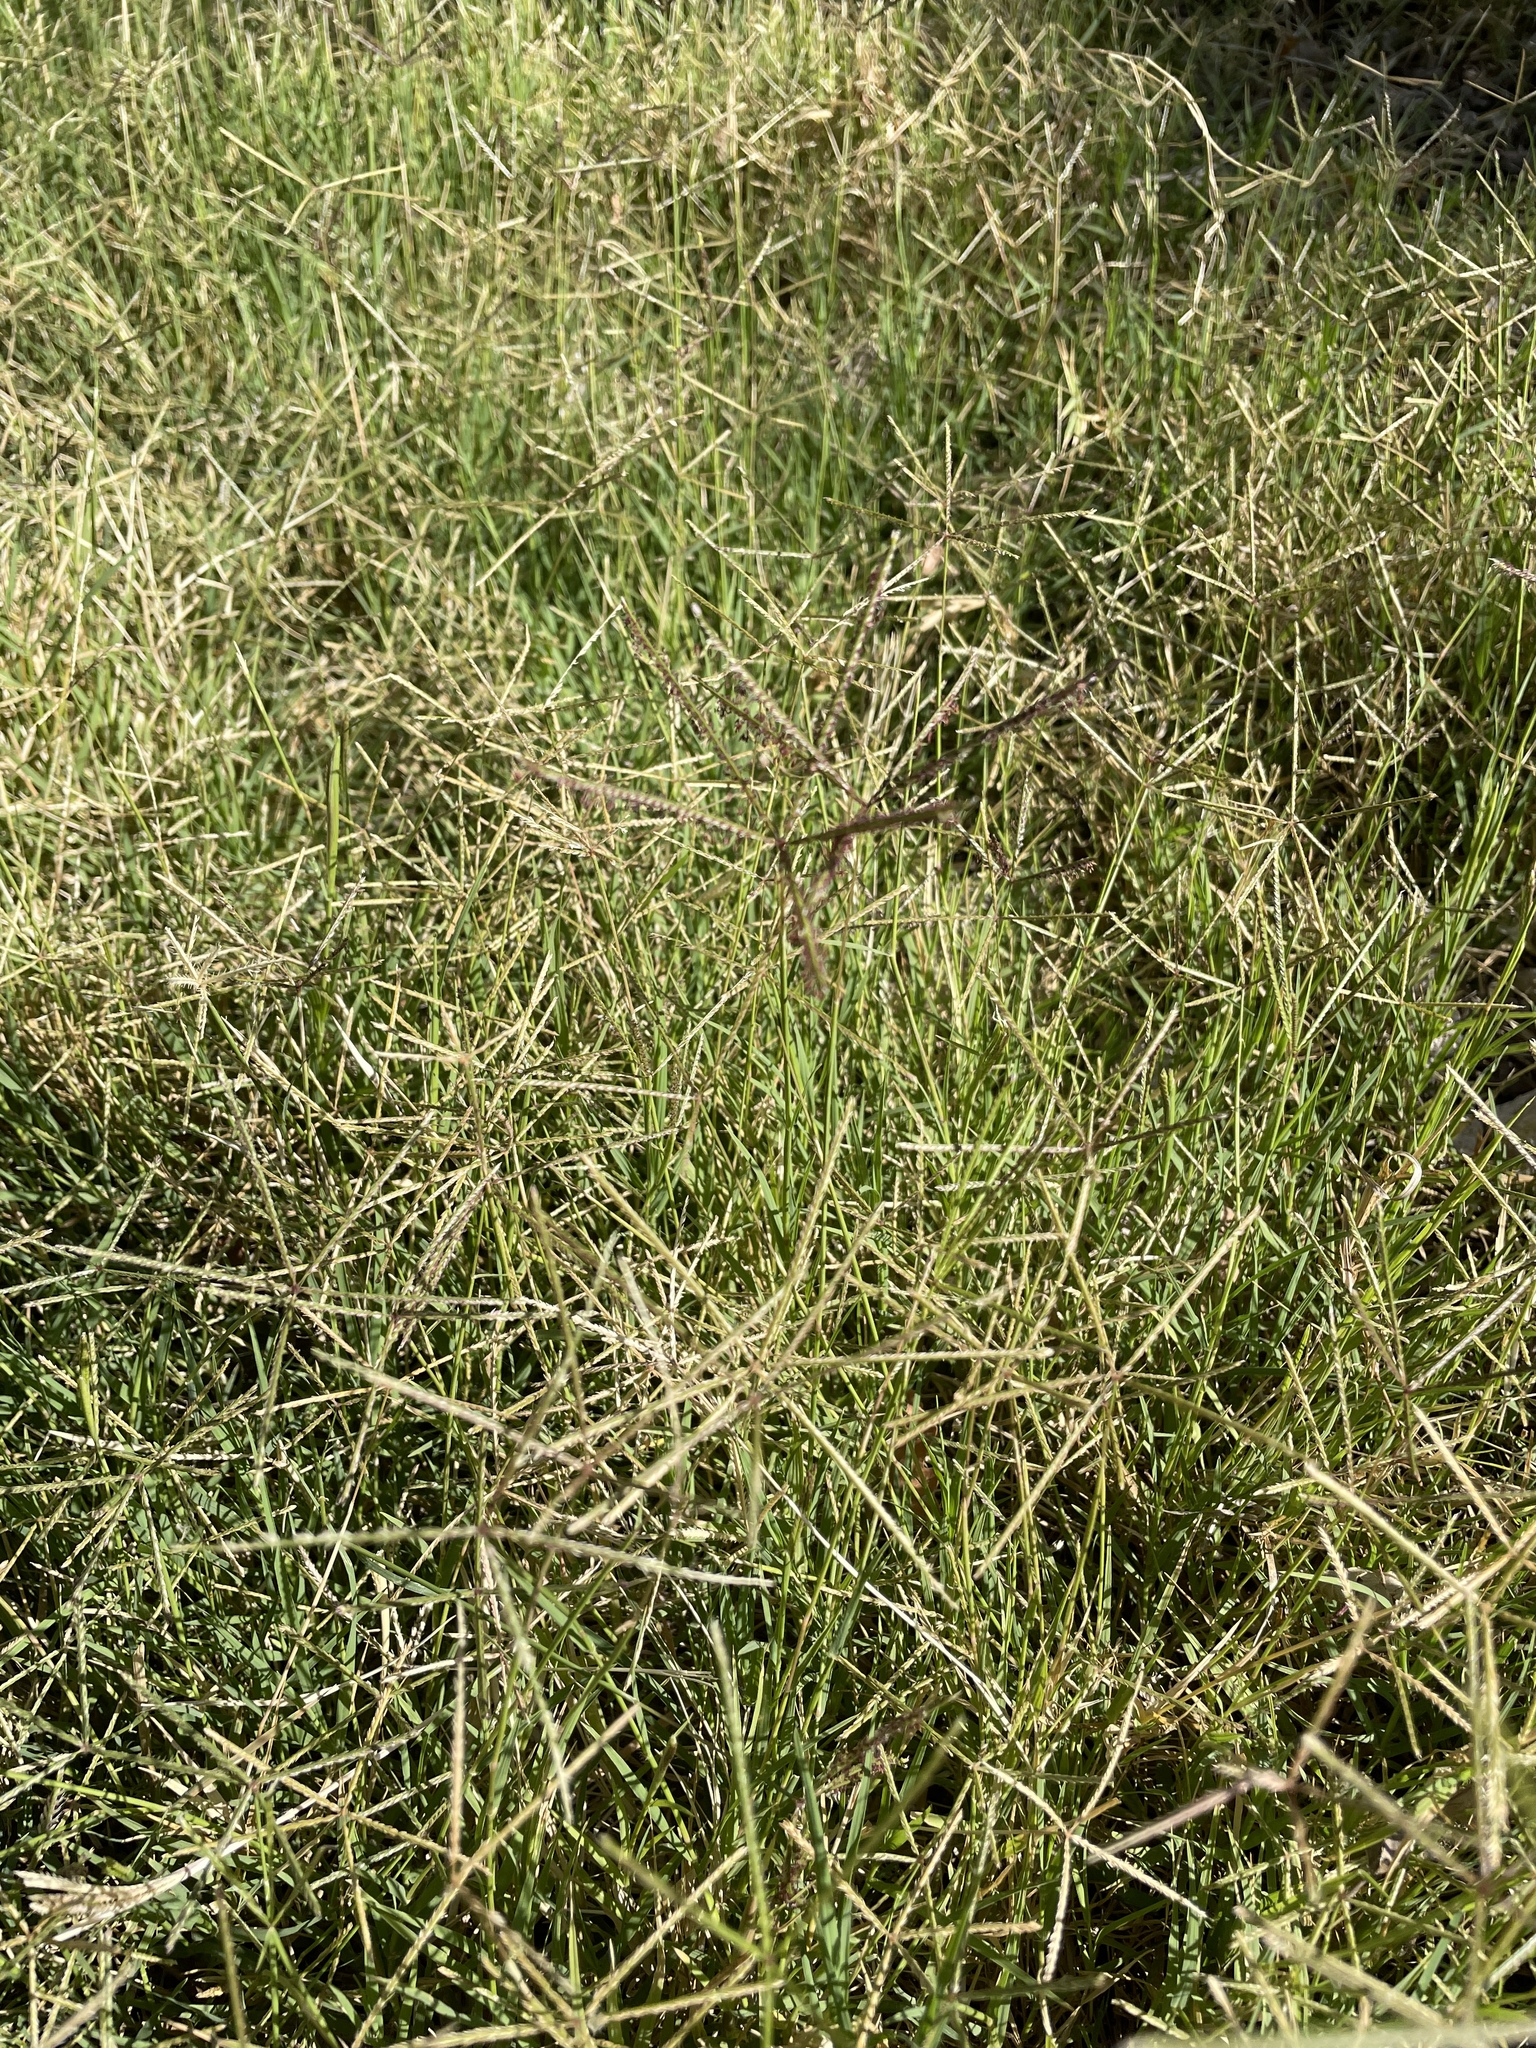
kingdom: Plantae
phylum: Tracheophyta
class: Liliopsida
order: Poales
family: Poaceae
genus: Cynodon
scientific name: Cynodon dactylon
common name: Bermuda grass
